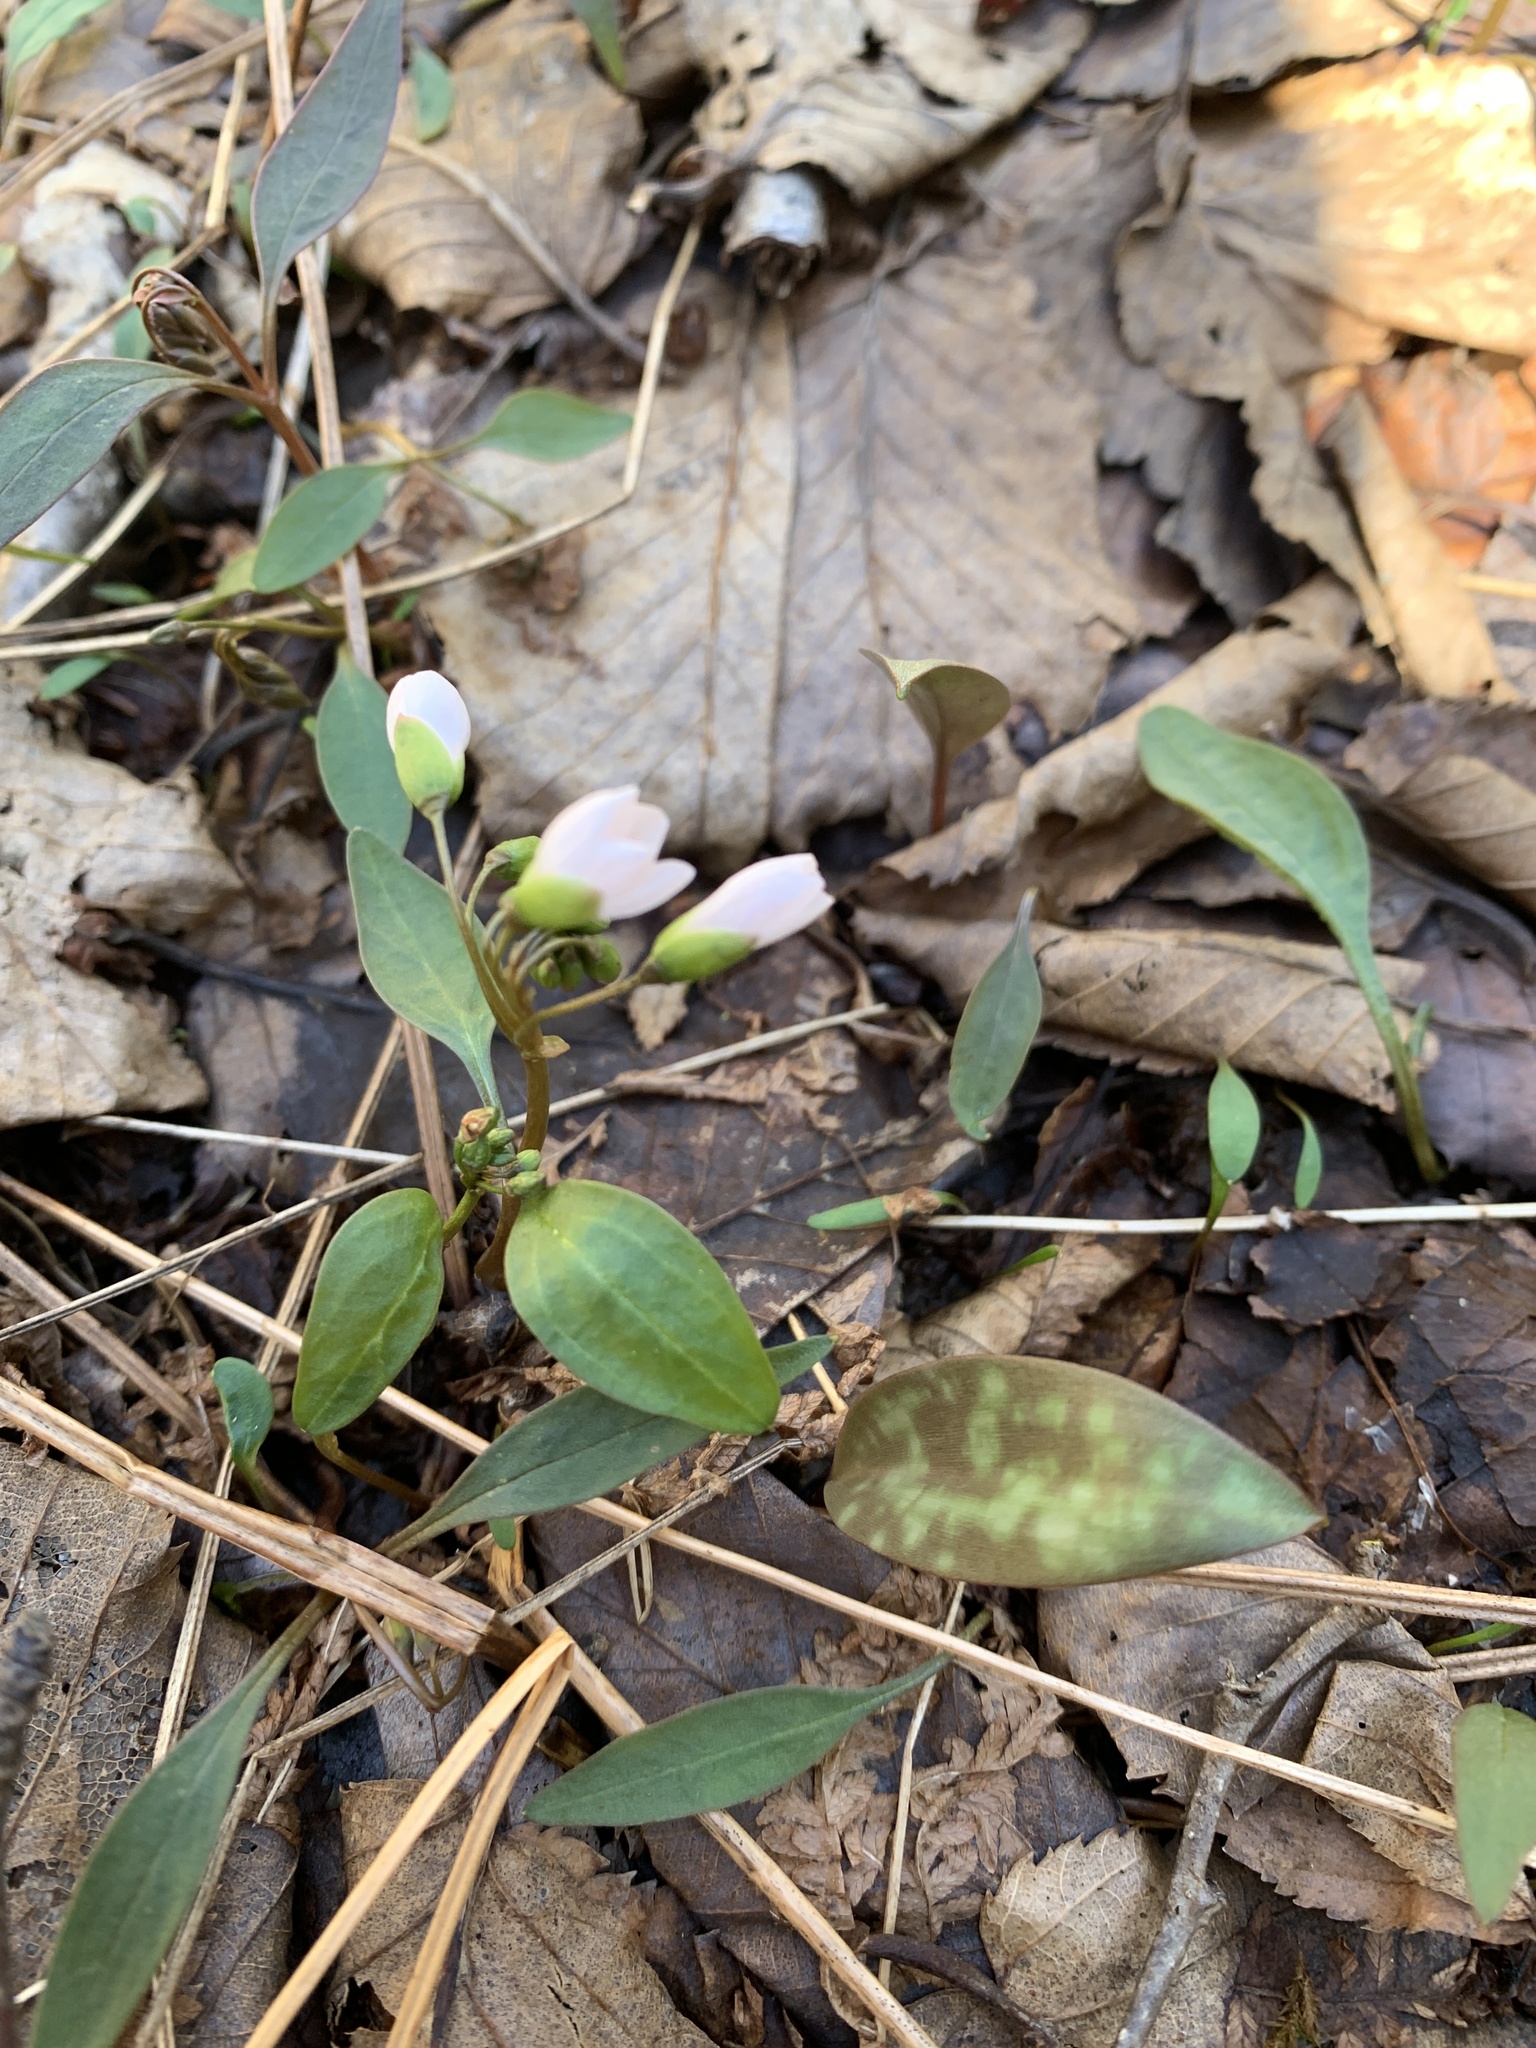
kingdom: Plantae
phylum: Tracheophyta
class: Magnoliopsida
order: Caryophyllales
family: Montiaceae
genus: Claytonia
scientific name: Claytonia caroliniana
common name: Carolina spring beauty
